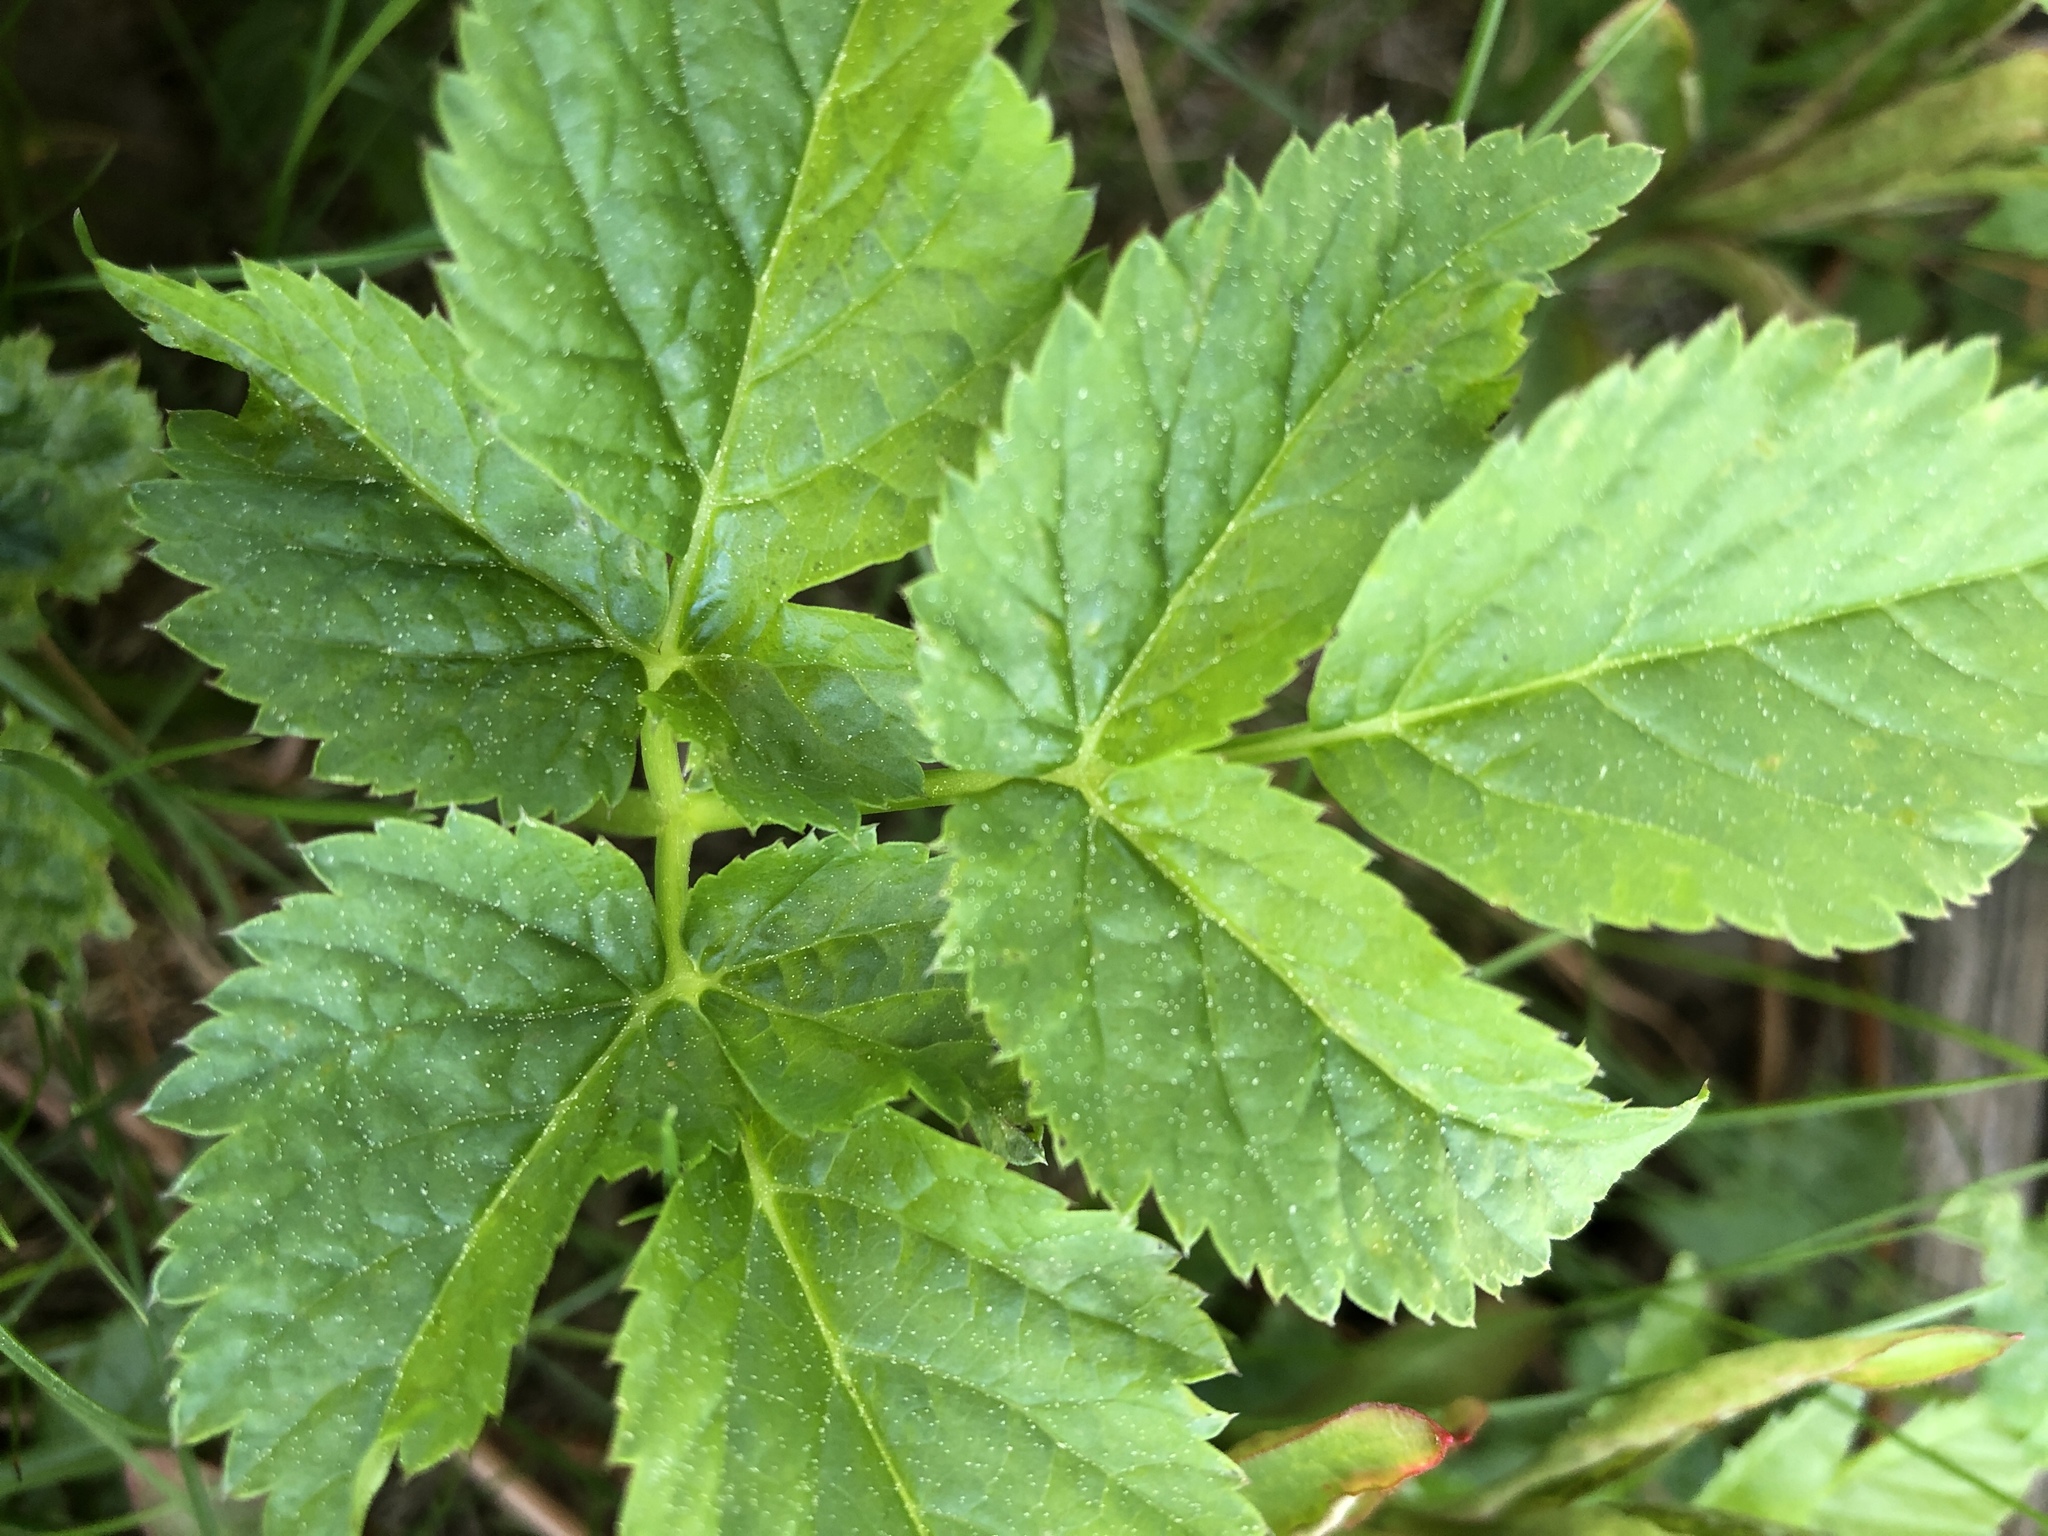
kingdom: Plantae
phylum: Tracheophyta
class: Magnoliopsida
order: Apiales
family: Apiaceae
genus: Aegopodium
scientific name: Aegopodium podagraria
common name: Ground-elder
